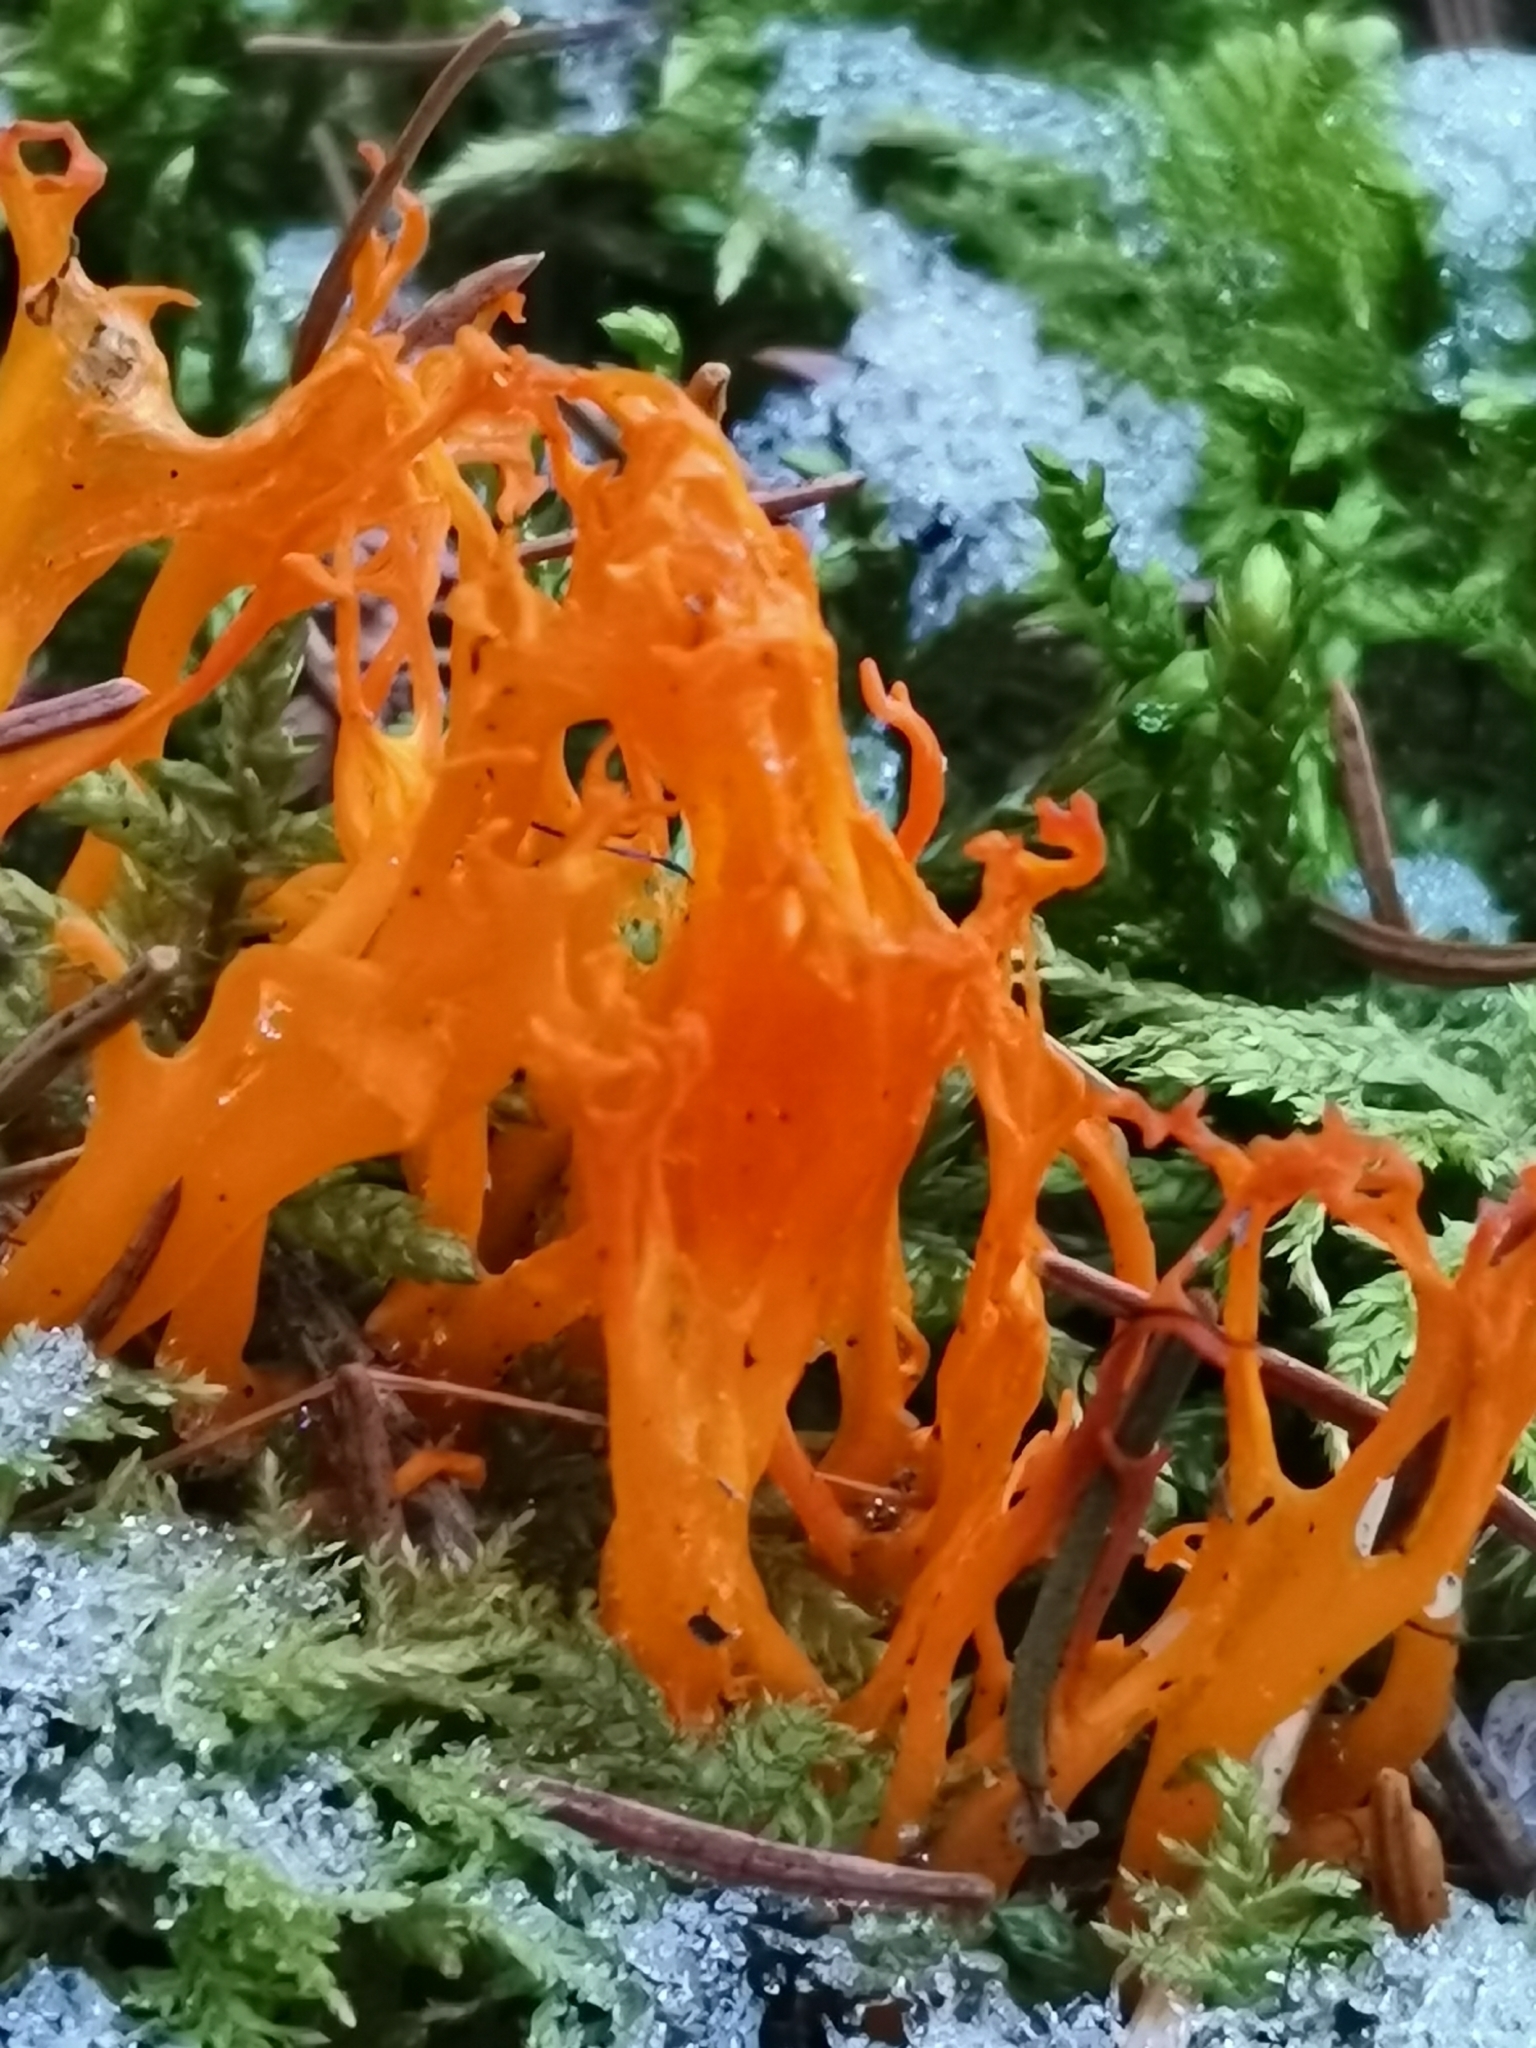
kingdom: Fungi
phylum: Basidiomycota
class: Dacrymycetes
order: Dacrymycetales
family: Dacrymycetaceae
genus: Calocera
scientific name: Calocera viscosa
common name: Yellow stagshorn
